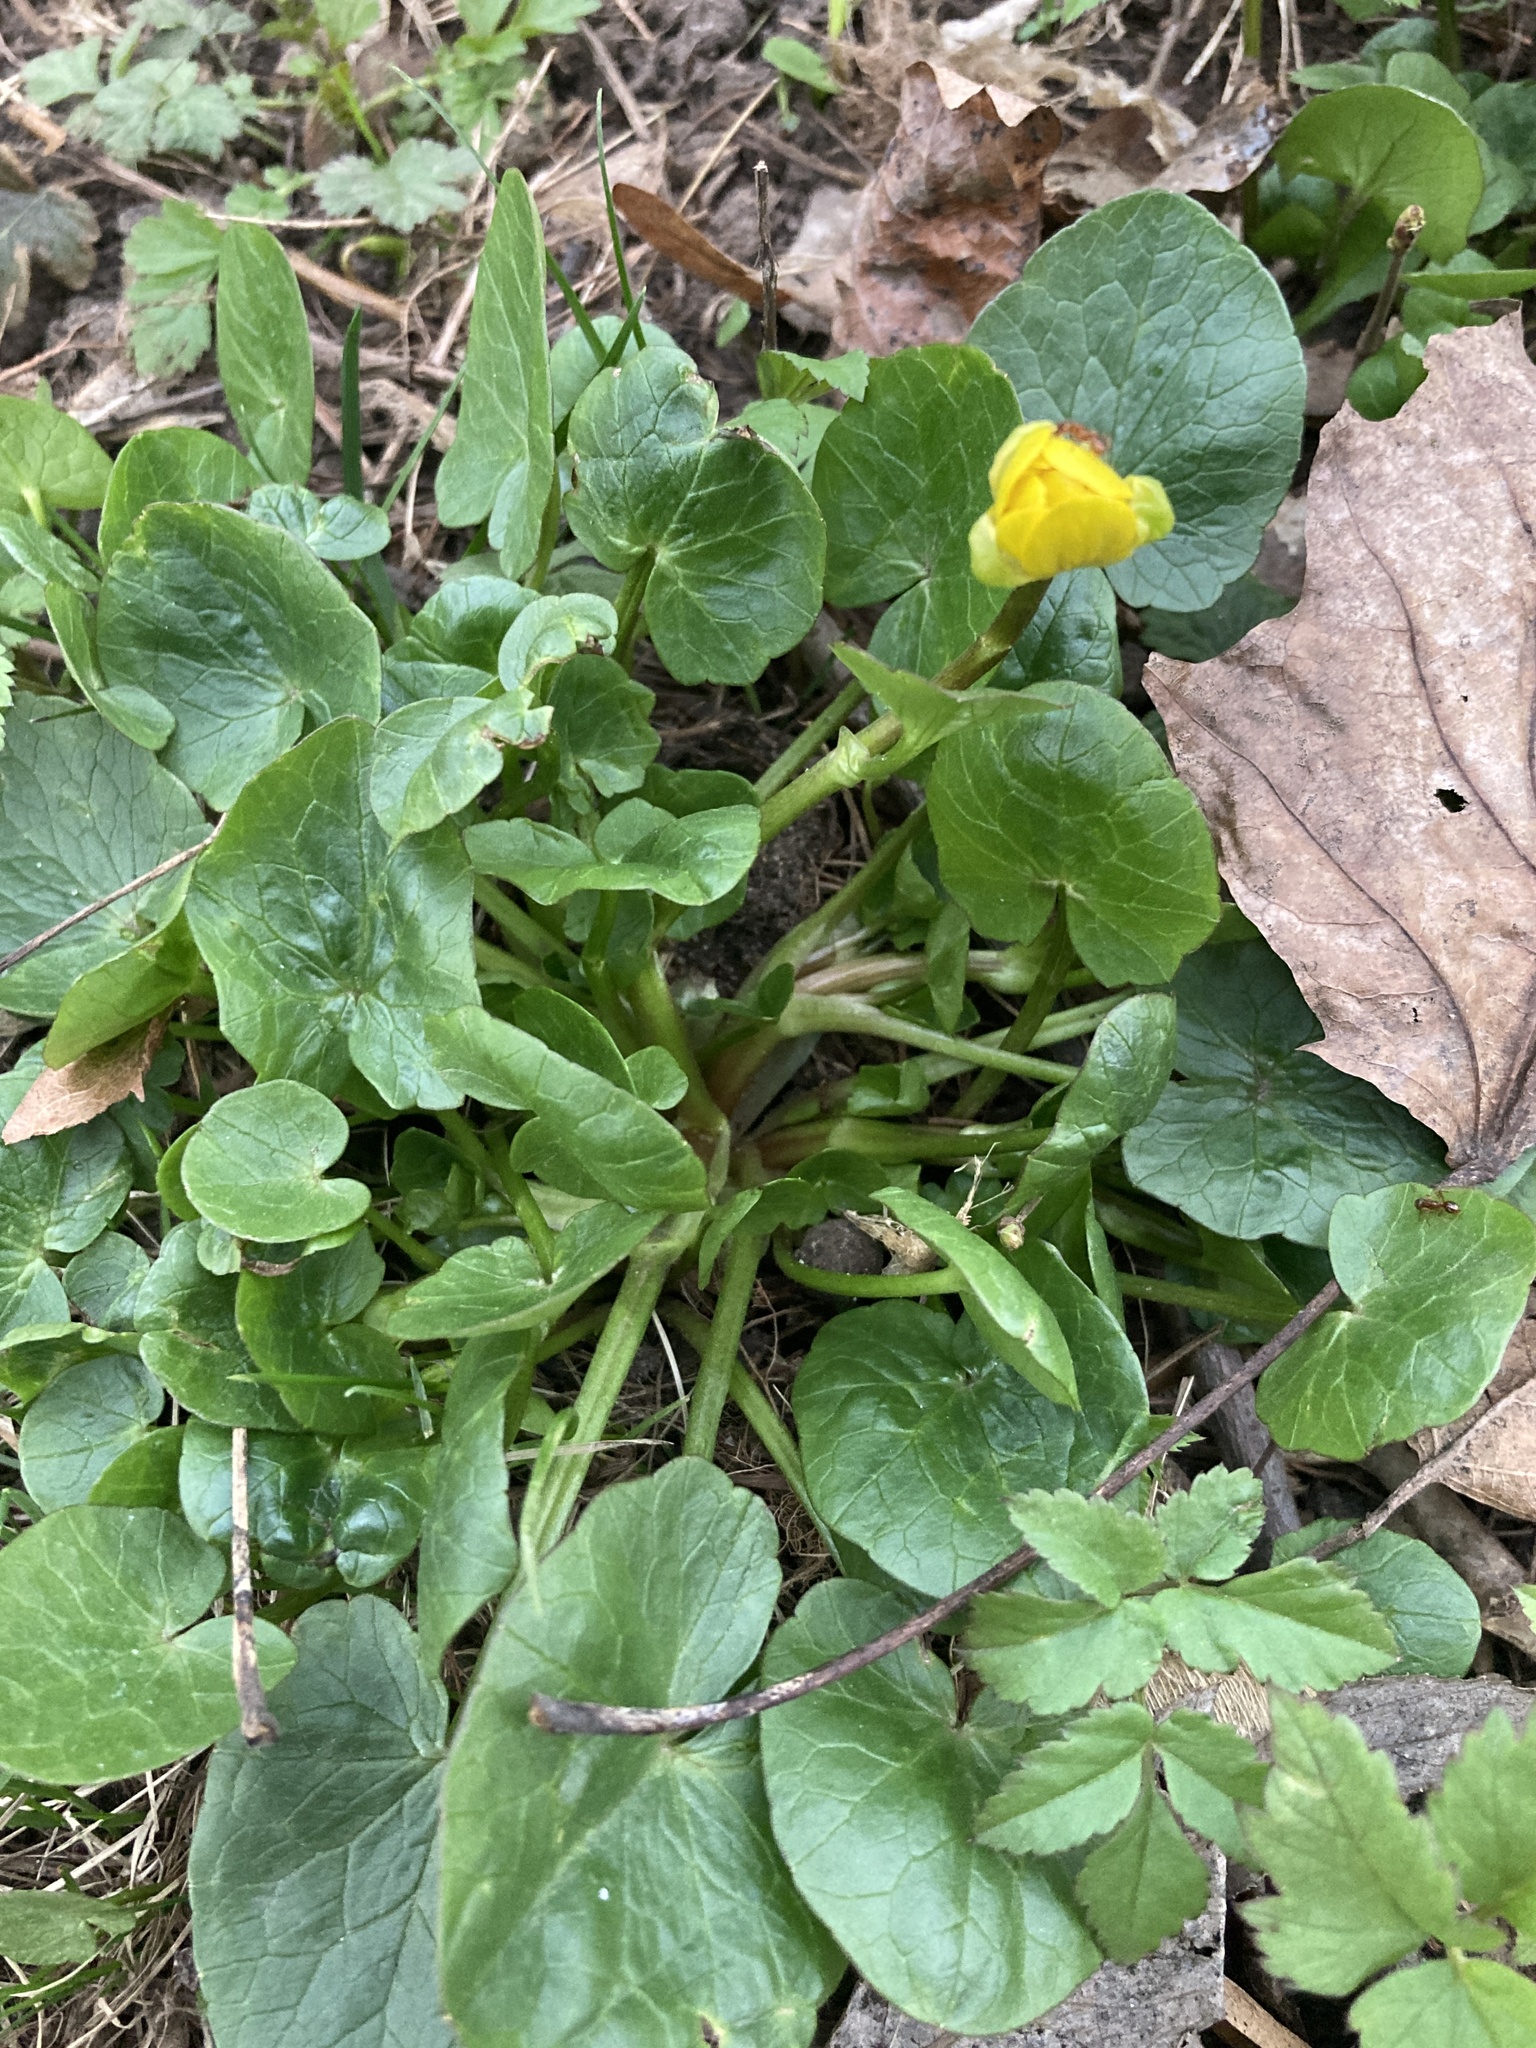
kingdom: Plantae
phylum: Tracheophyta
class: Magnoliopsida
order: Ranunculales
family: Ranunculaceae
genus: Ficaria
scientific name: Ficaria verna
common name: Lesser celandine
